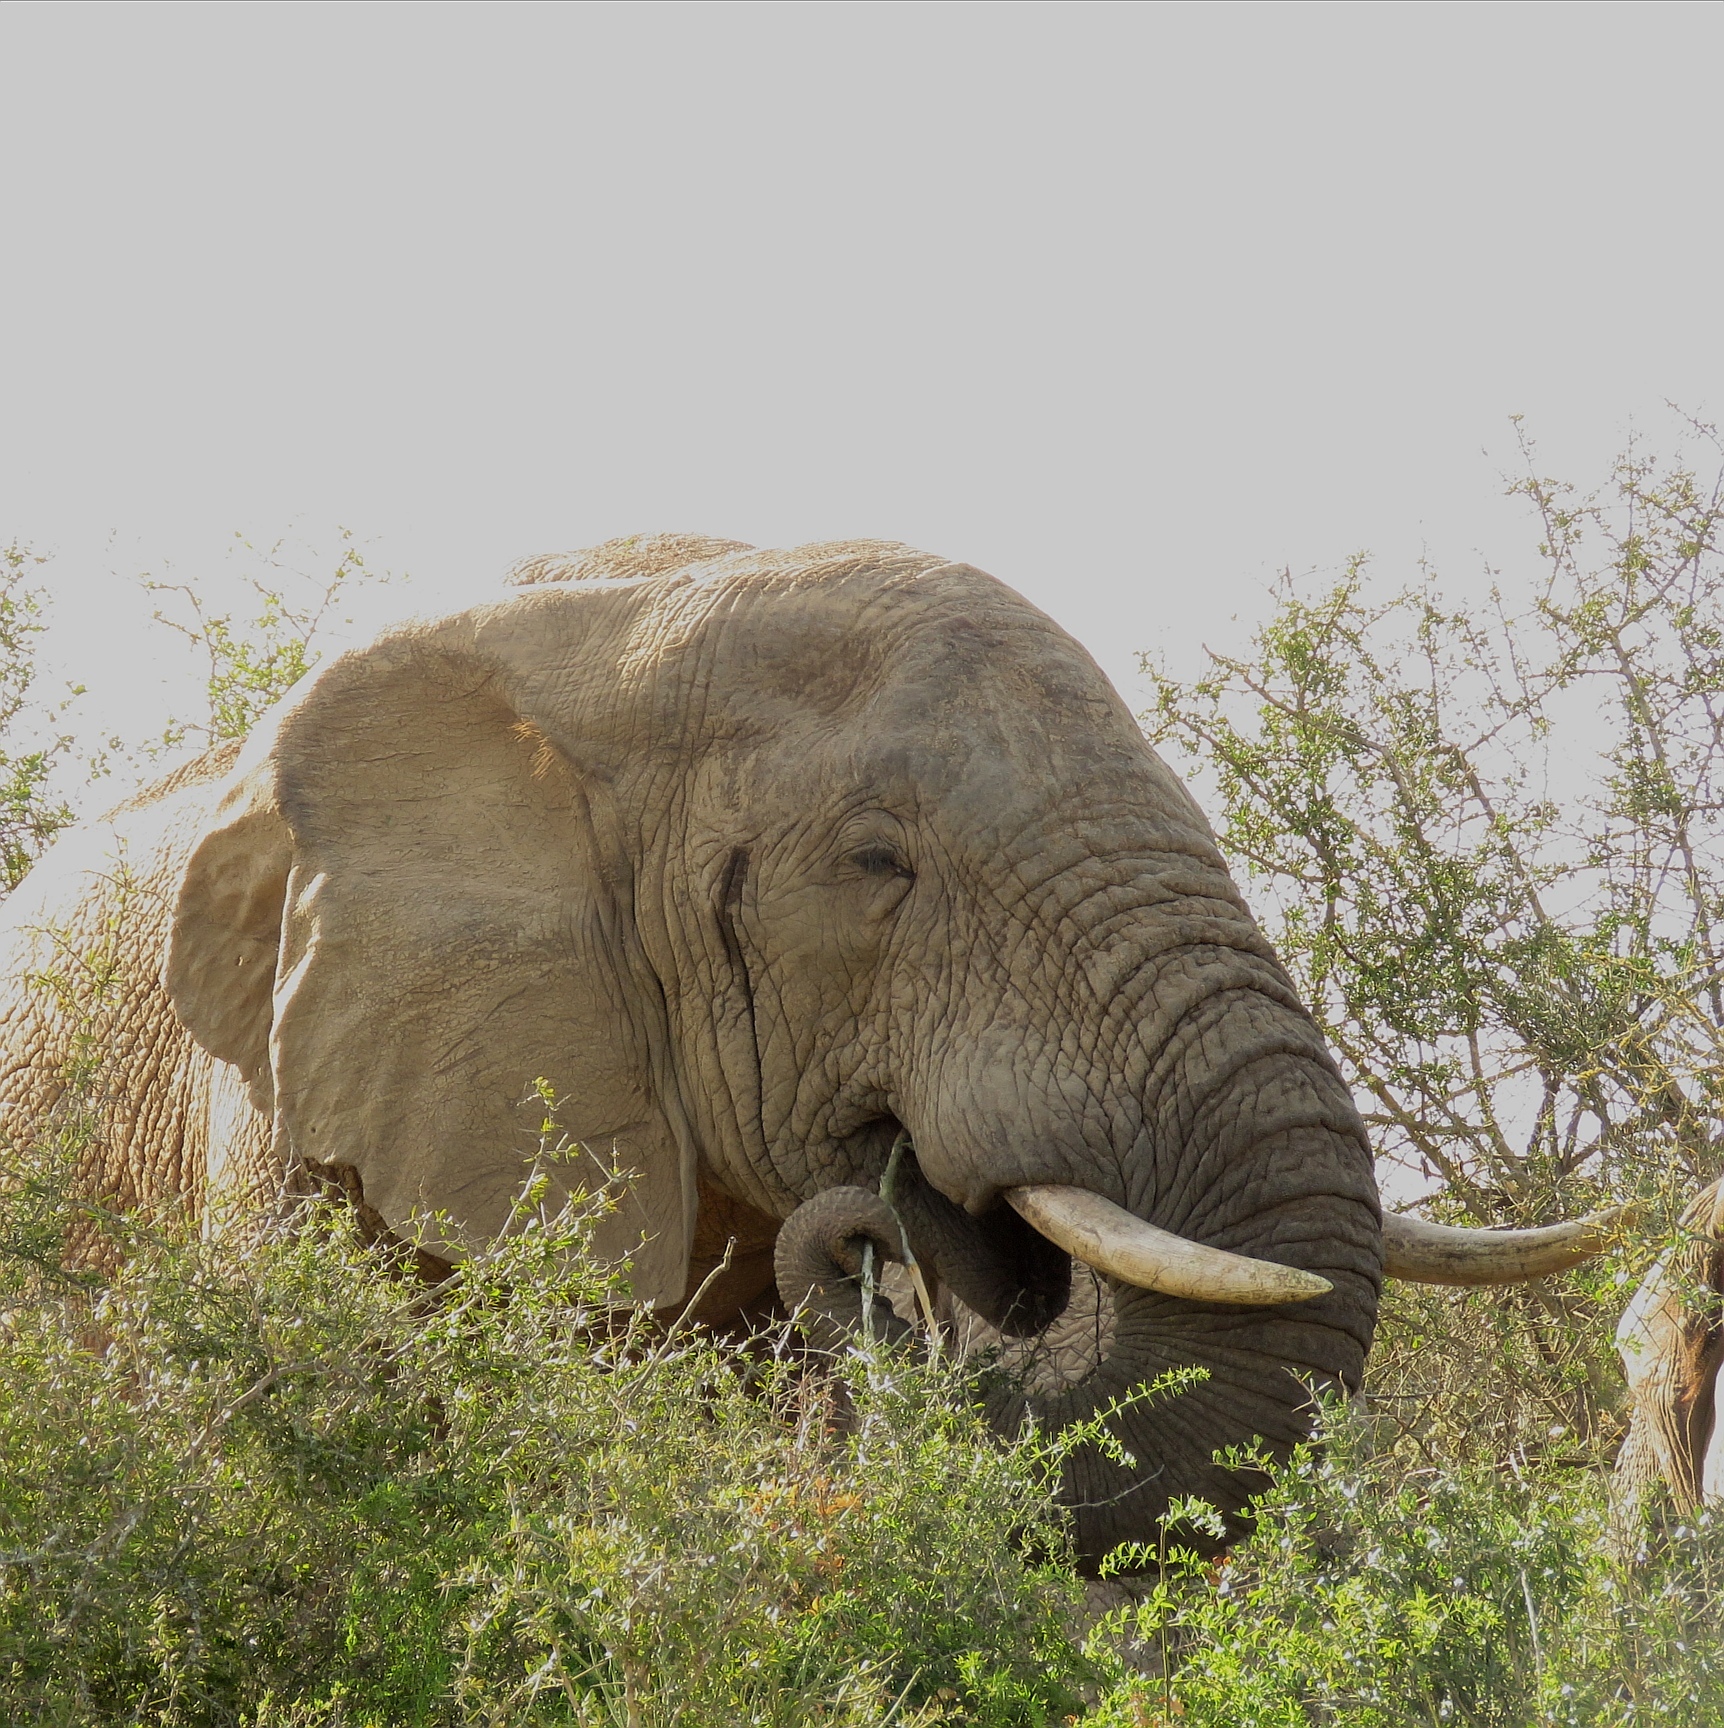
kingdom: Animalia
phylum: Chordata
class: Mammalia
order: Proboscidea
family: Elephantidae
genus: Loxodonta
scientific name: Loxodonta africana
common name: African elephant
